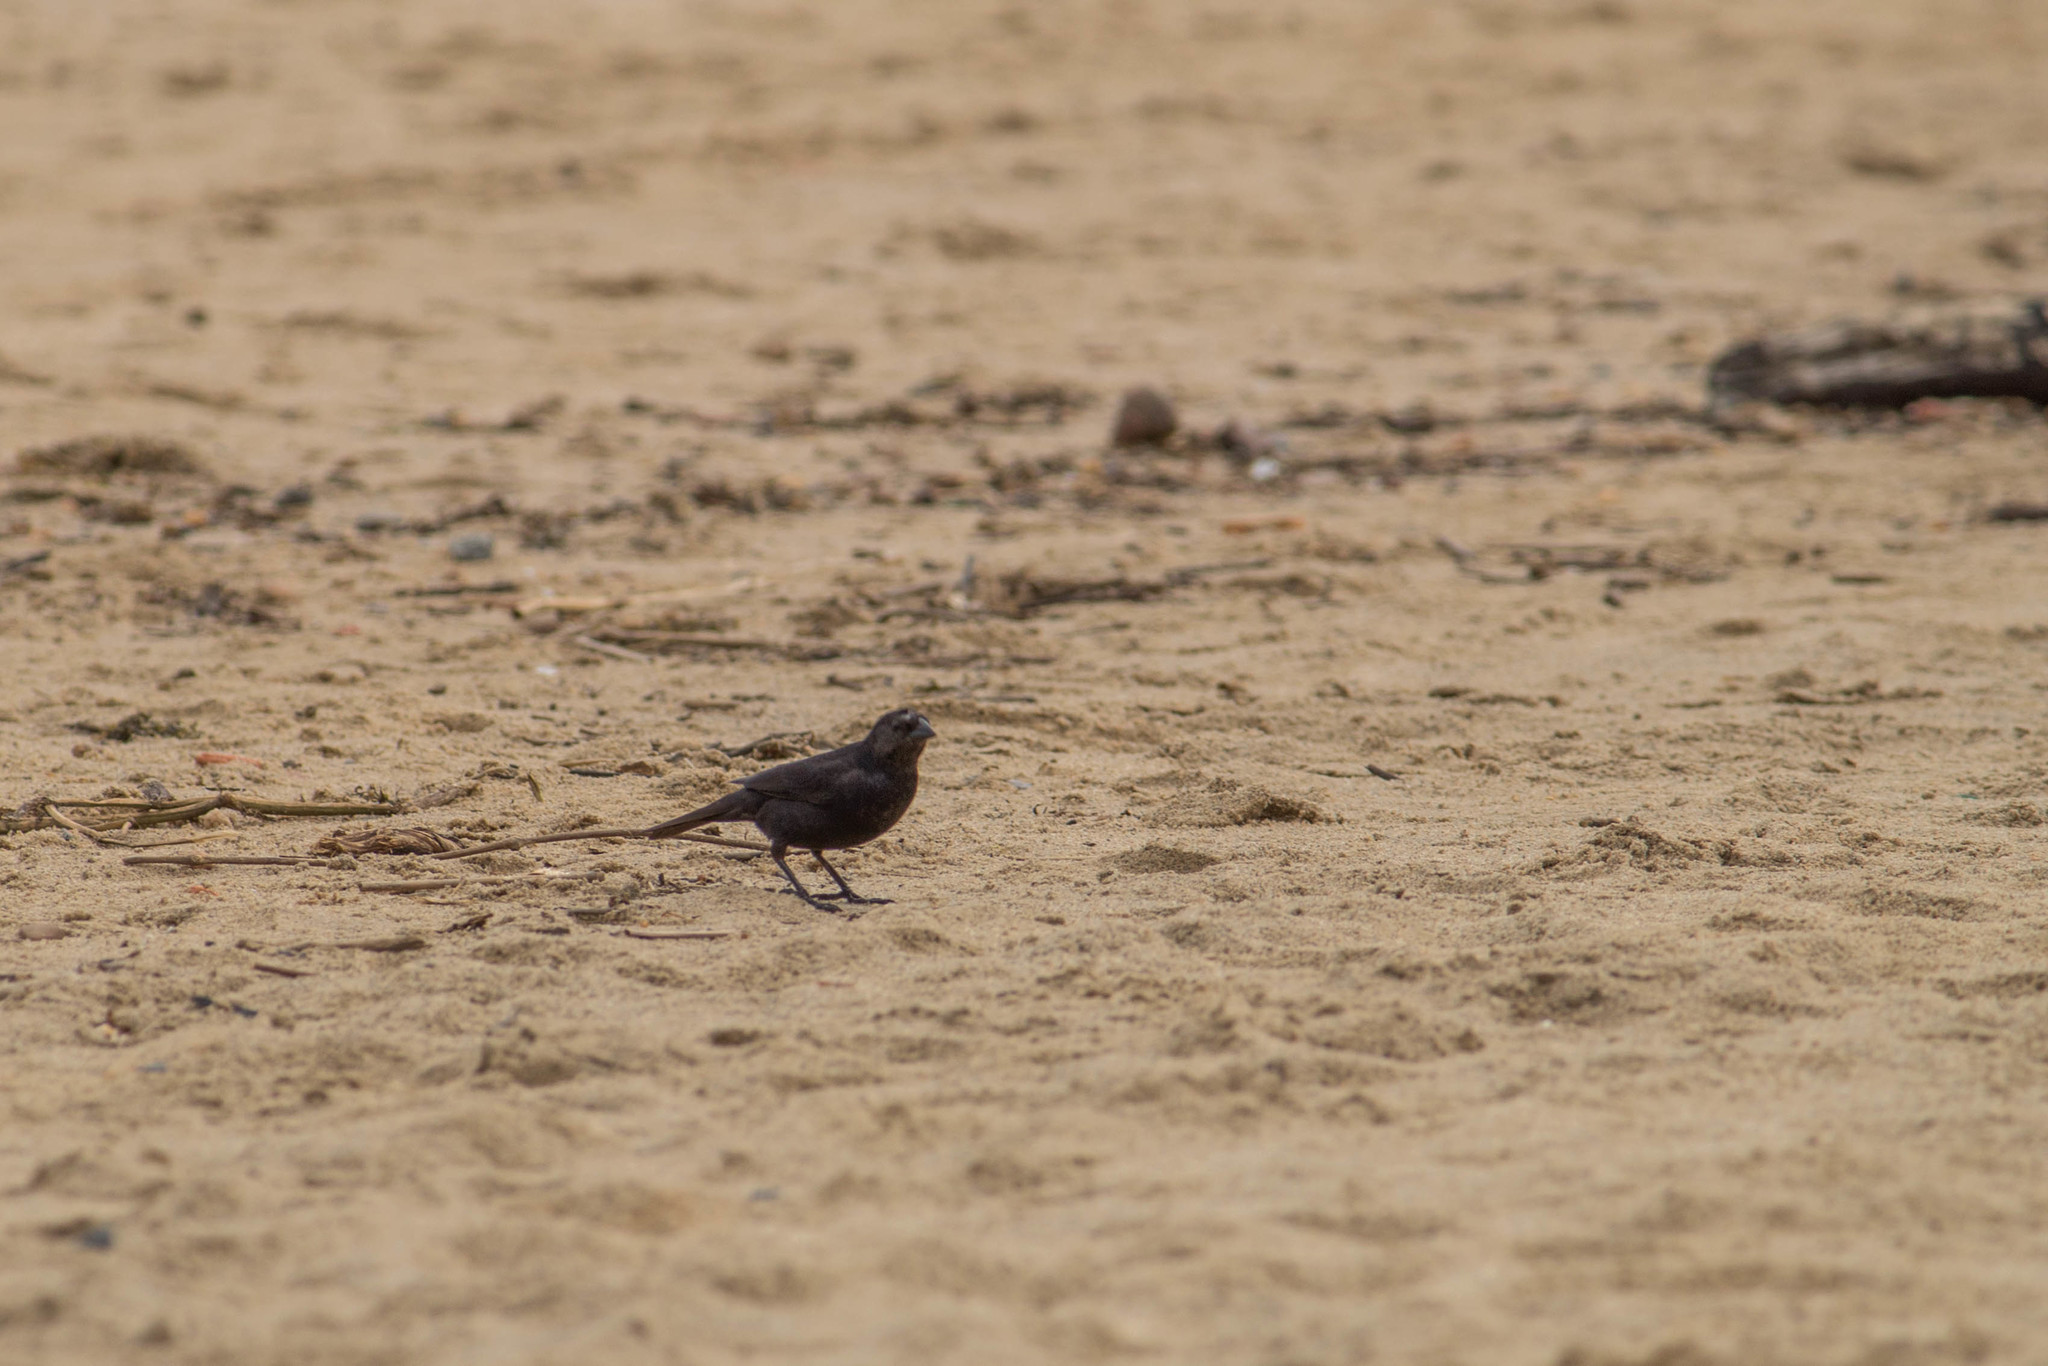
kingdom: Animalia
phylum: Chordata
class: Aves
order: Passeriformes
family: Icteridae
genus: Molothrus
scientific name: Molothrus bonariensis
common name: Shiny cowbird
